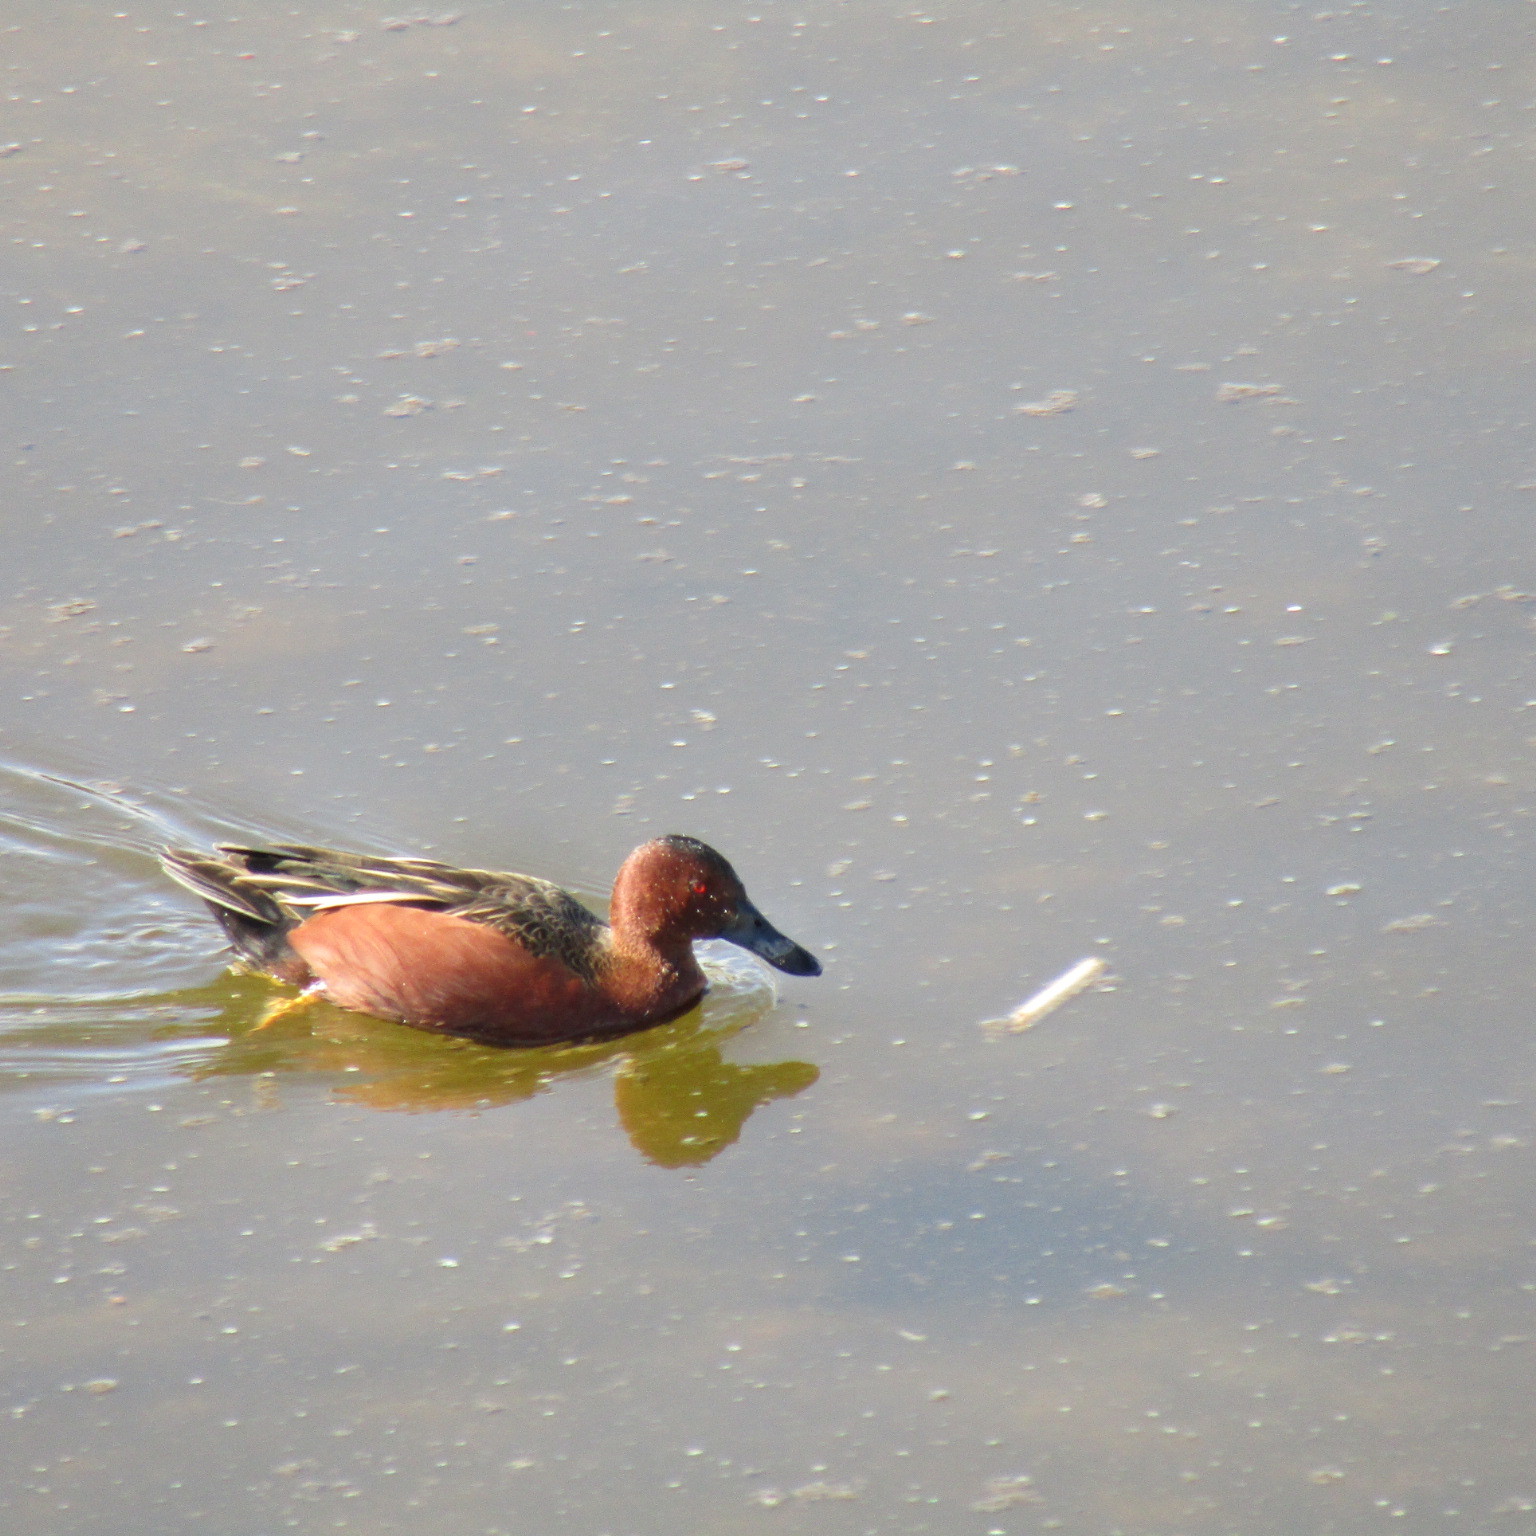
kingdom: Animalia
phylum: Chordata
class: Aves
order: Anseriformes
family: Anatidae
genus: Spatula
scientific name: Spatula cyanoptera
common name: Cinnamon teal
